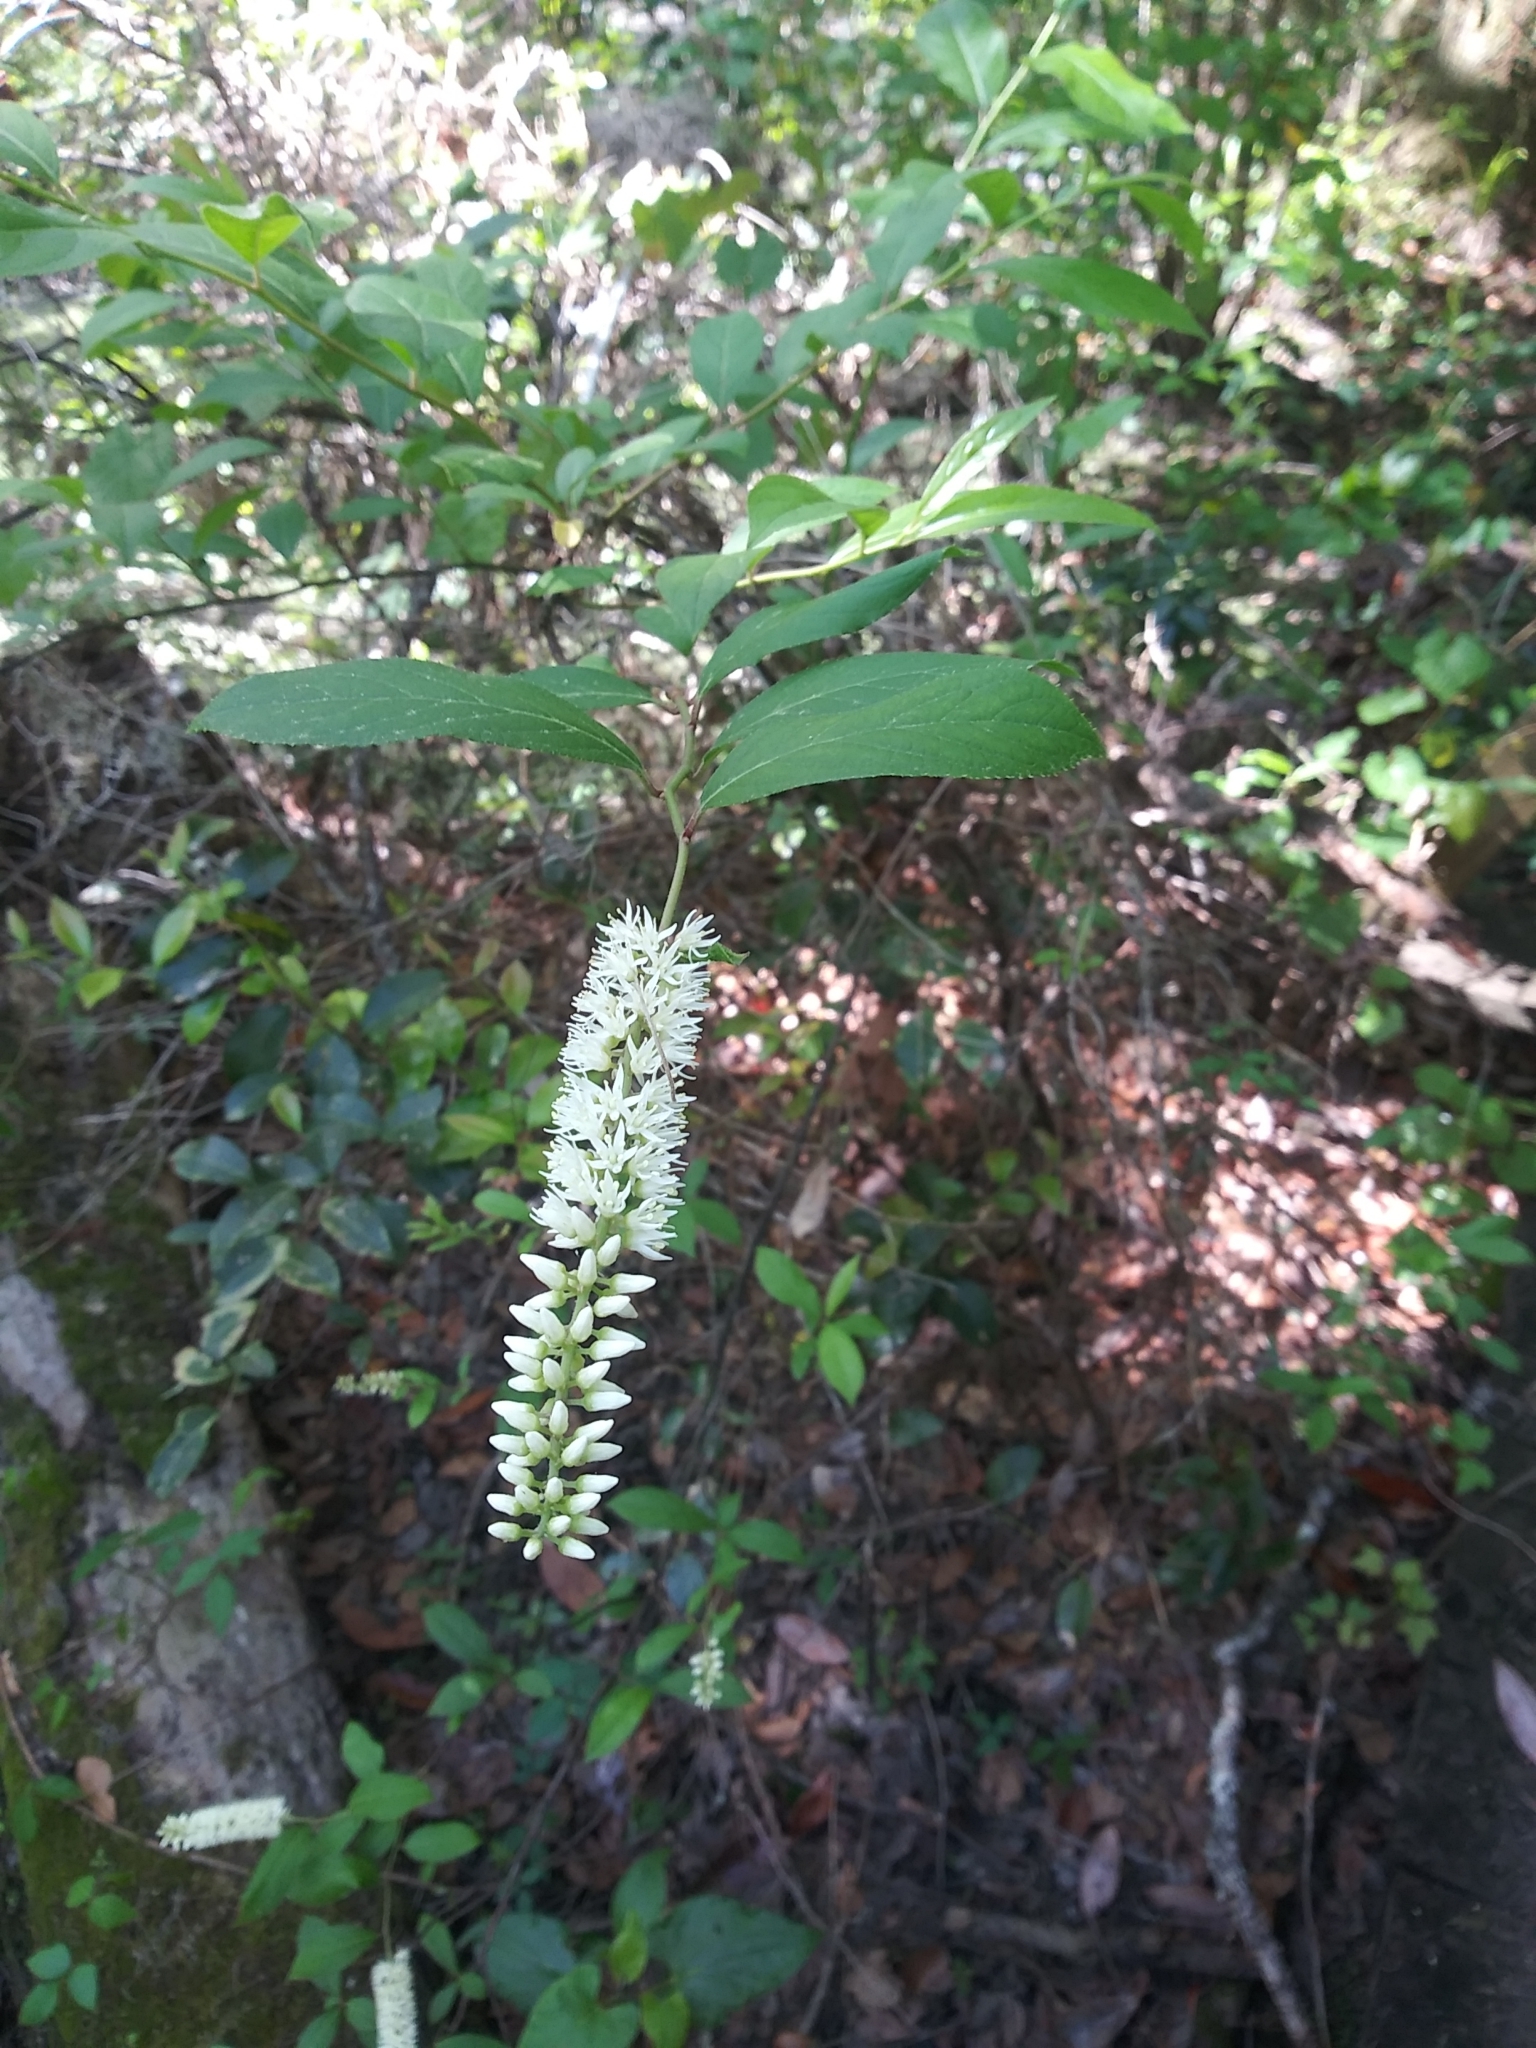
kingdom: Plantae
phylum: Tracheophyta
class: Magnoliopsida
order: Saxifragales
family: Iteaceae
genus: Itea
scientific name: Itea virginica
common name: Sweetspire
